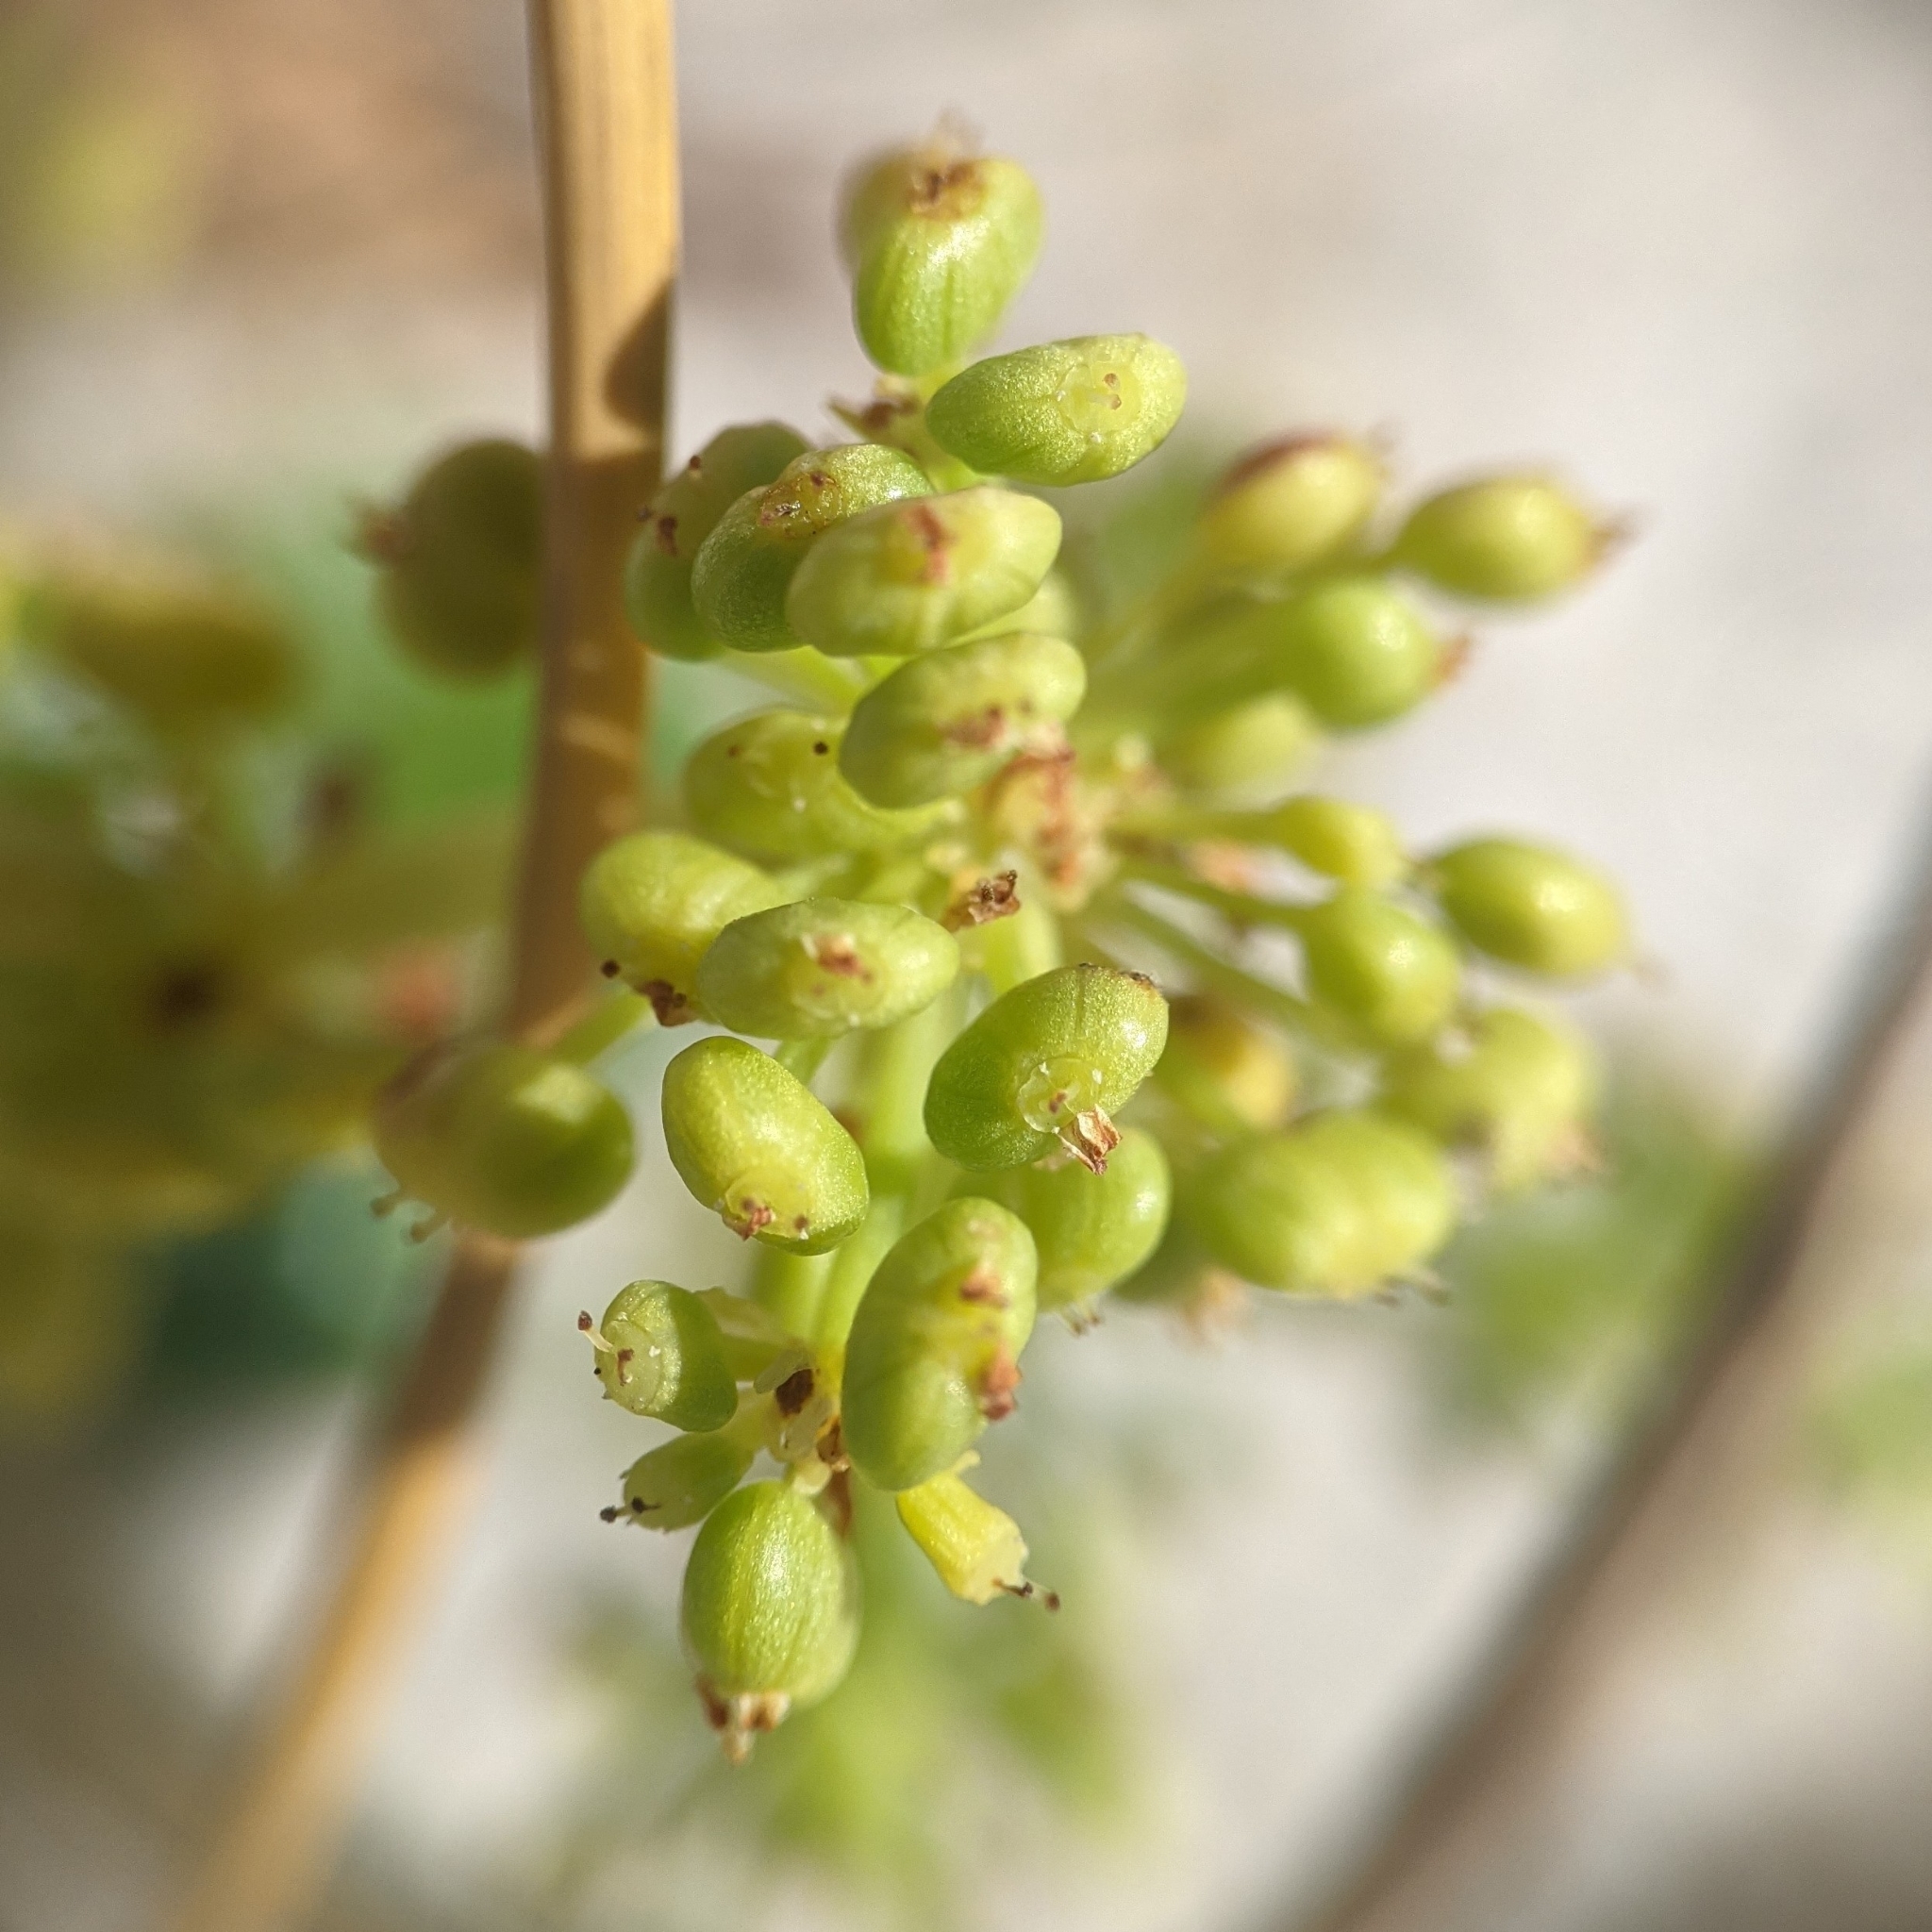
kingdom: Plantae
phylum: Tracheophyta
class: Magnoliopsida
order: Apiales
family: Araliaceae
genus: Hydrocotyle
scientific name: Hydrocotyle bonariensis
